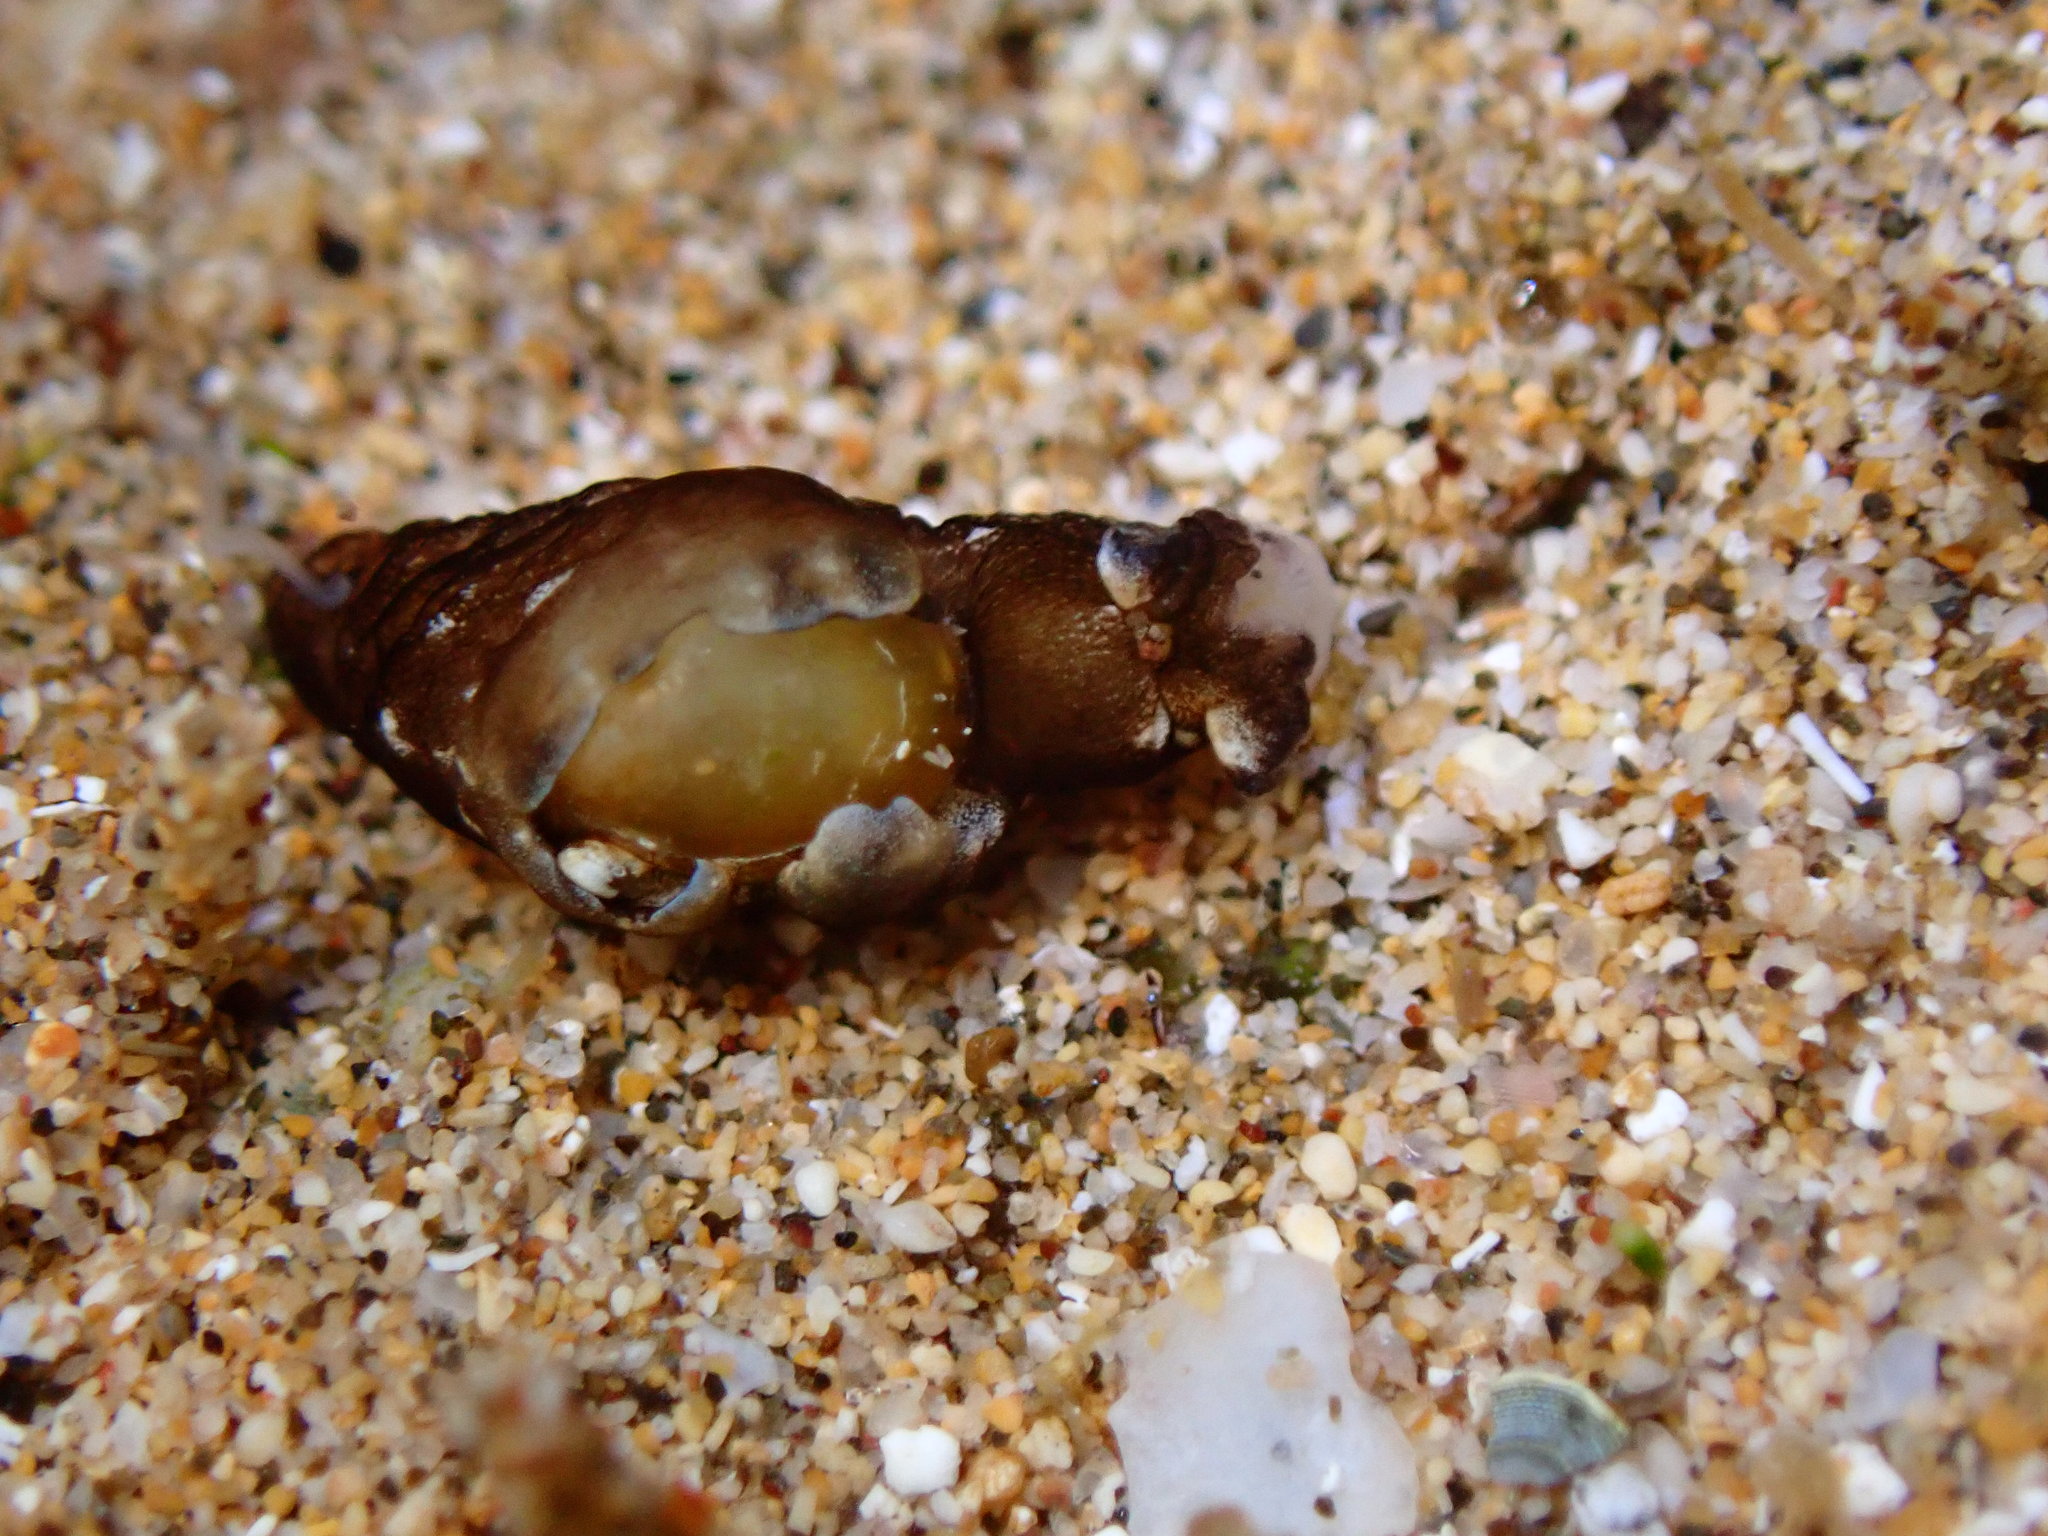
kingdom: Animalia
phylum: Mollusca
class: Gastropoda
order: Aplysiida
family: Aplysiidae
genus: Aplysia
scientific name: Aplysia elongata
